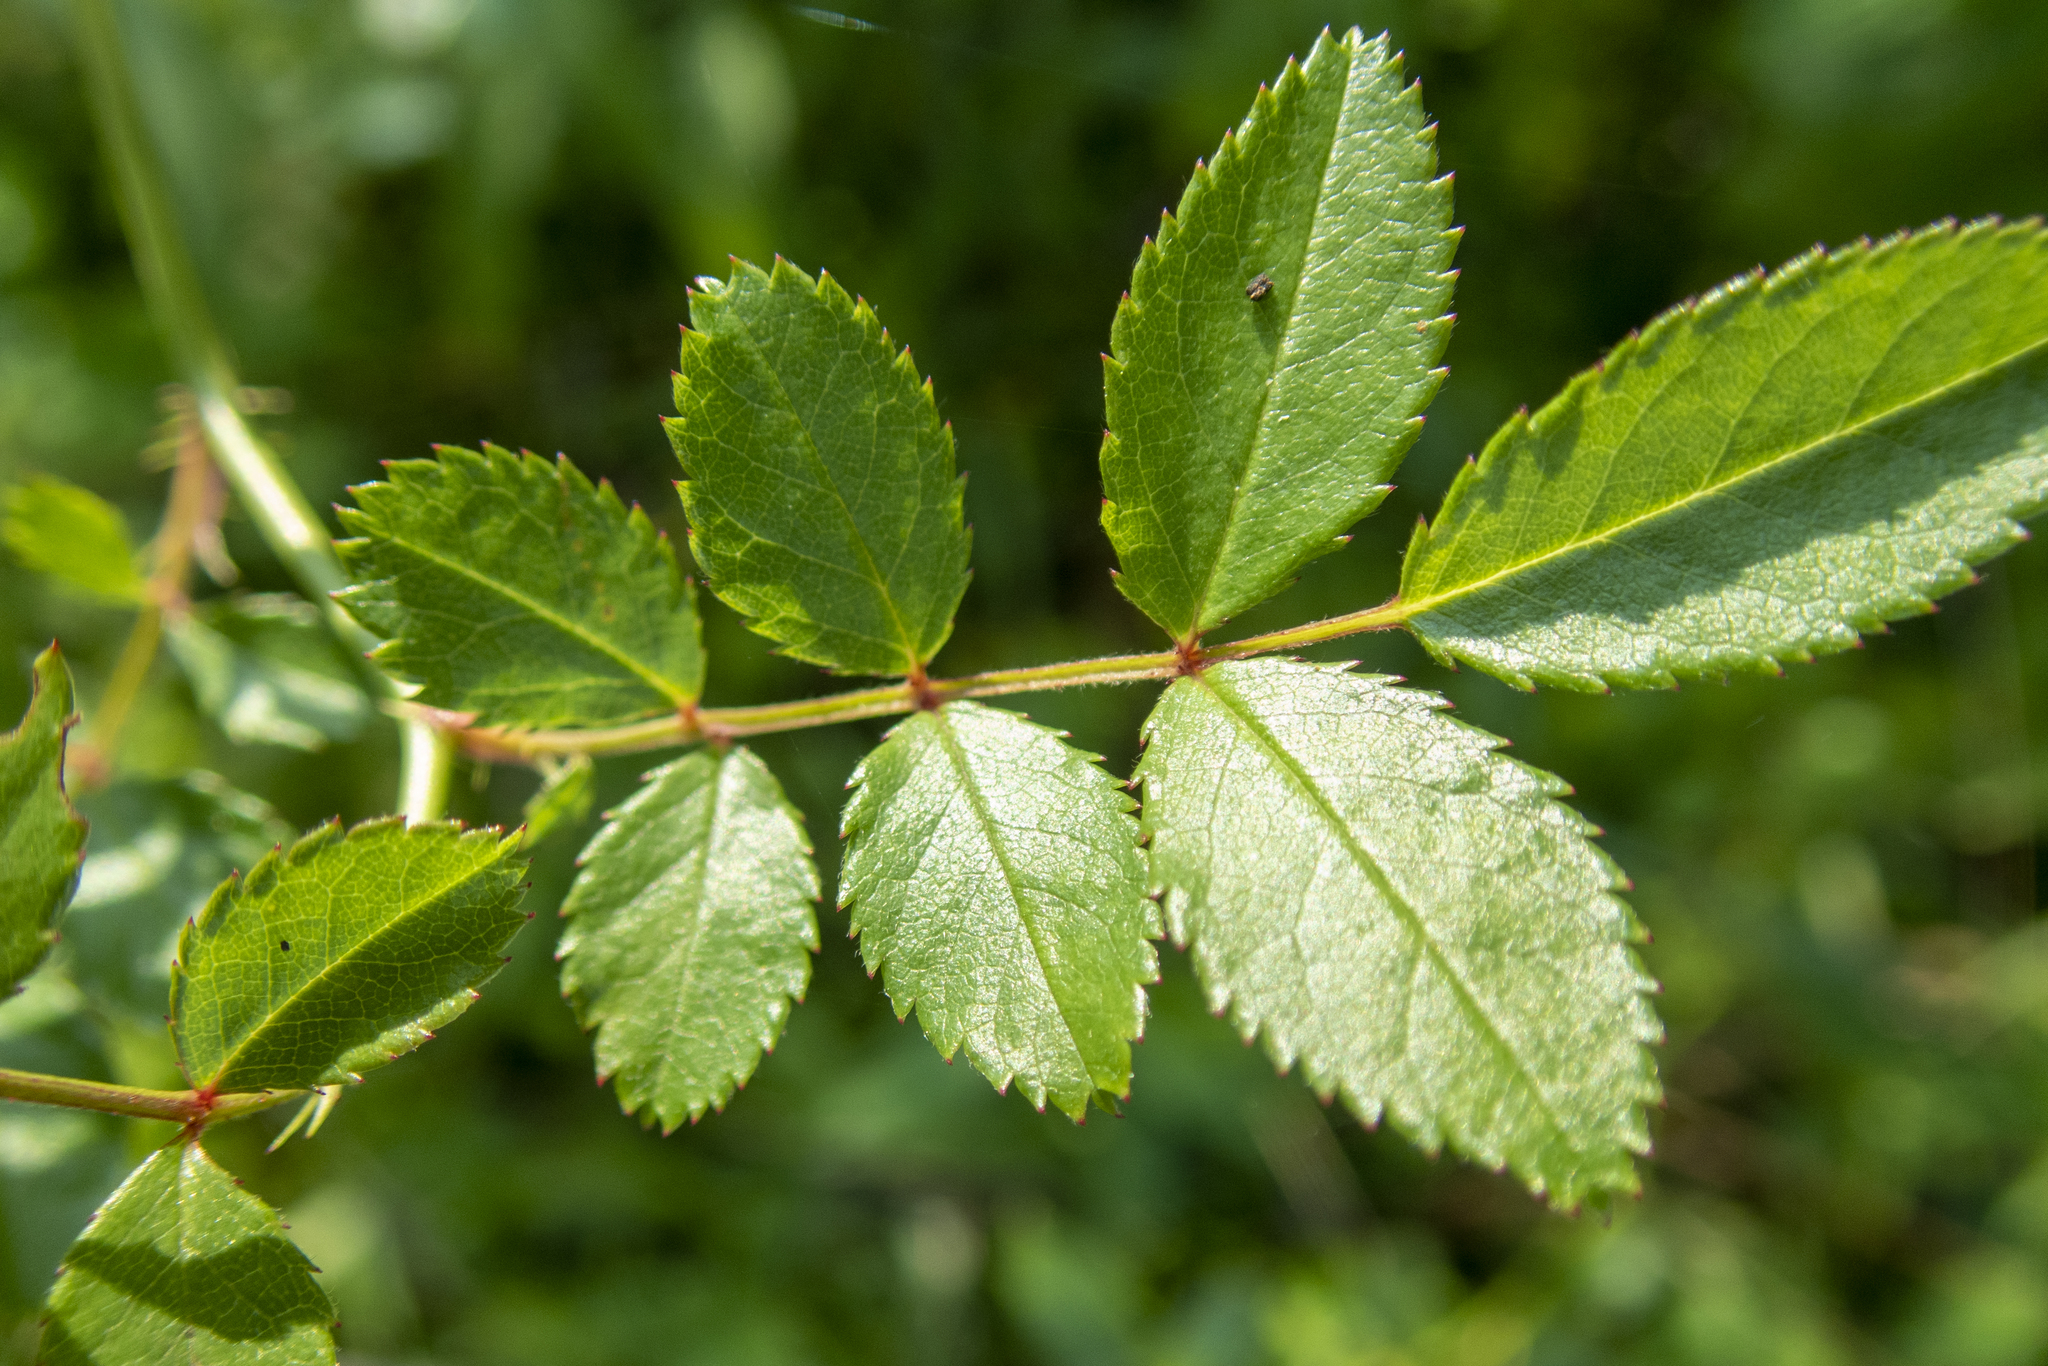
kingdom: Plantae
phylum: Tracheophyta
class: Magnoliopsida
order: Rosales
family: Rosaceae
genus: Rosa
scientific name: Rosa multiflora
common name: Multiflora rose
